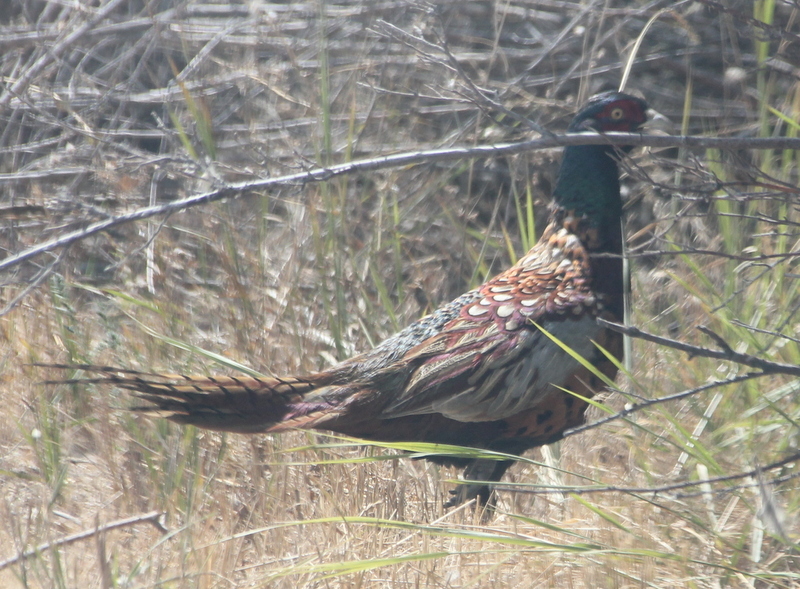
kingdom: Animalia
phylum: Chordata
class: Aves
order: Galliformes
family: Phasianidae
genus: Phasianus
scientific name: Phasianus colchicus
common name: Common pheasant
